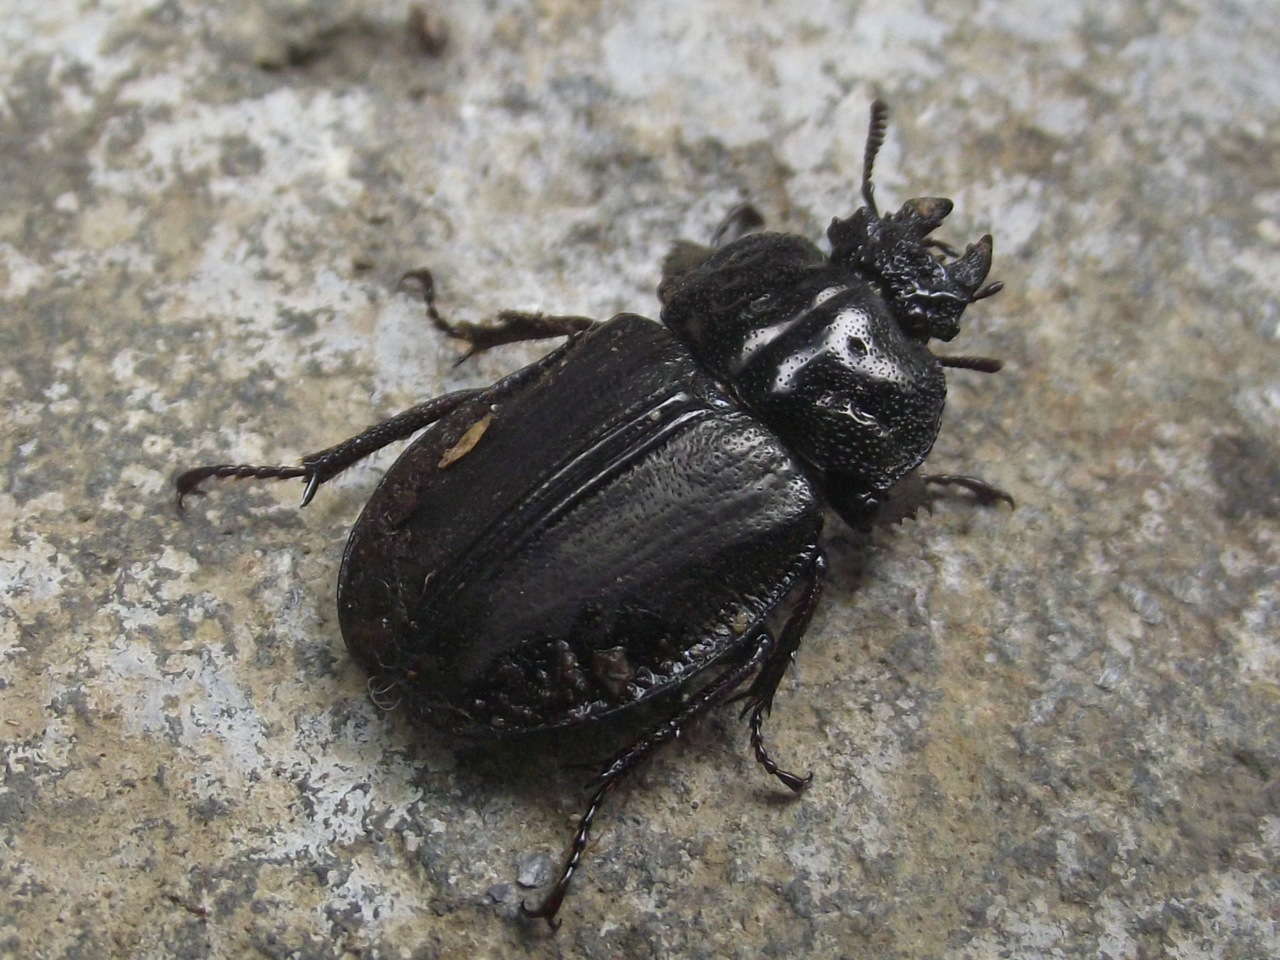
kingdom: Animalia
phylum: Arthropoda
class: Insecta
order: Coleoptera
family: Lucanidae
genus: Safrina
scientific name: Safrina jugularis
